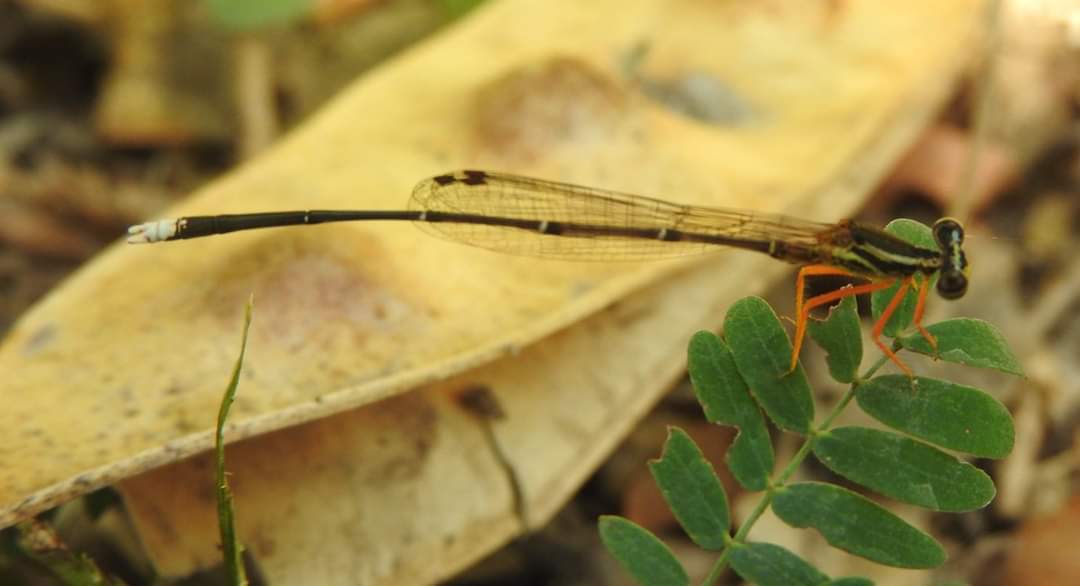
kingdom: Animalia
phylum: Arthropoda
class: Insecta
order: Odonata
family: Platycnemididae
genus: Copera
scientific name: Copera marginipes
